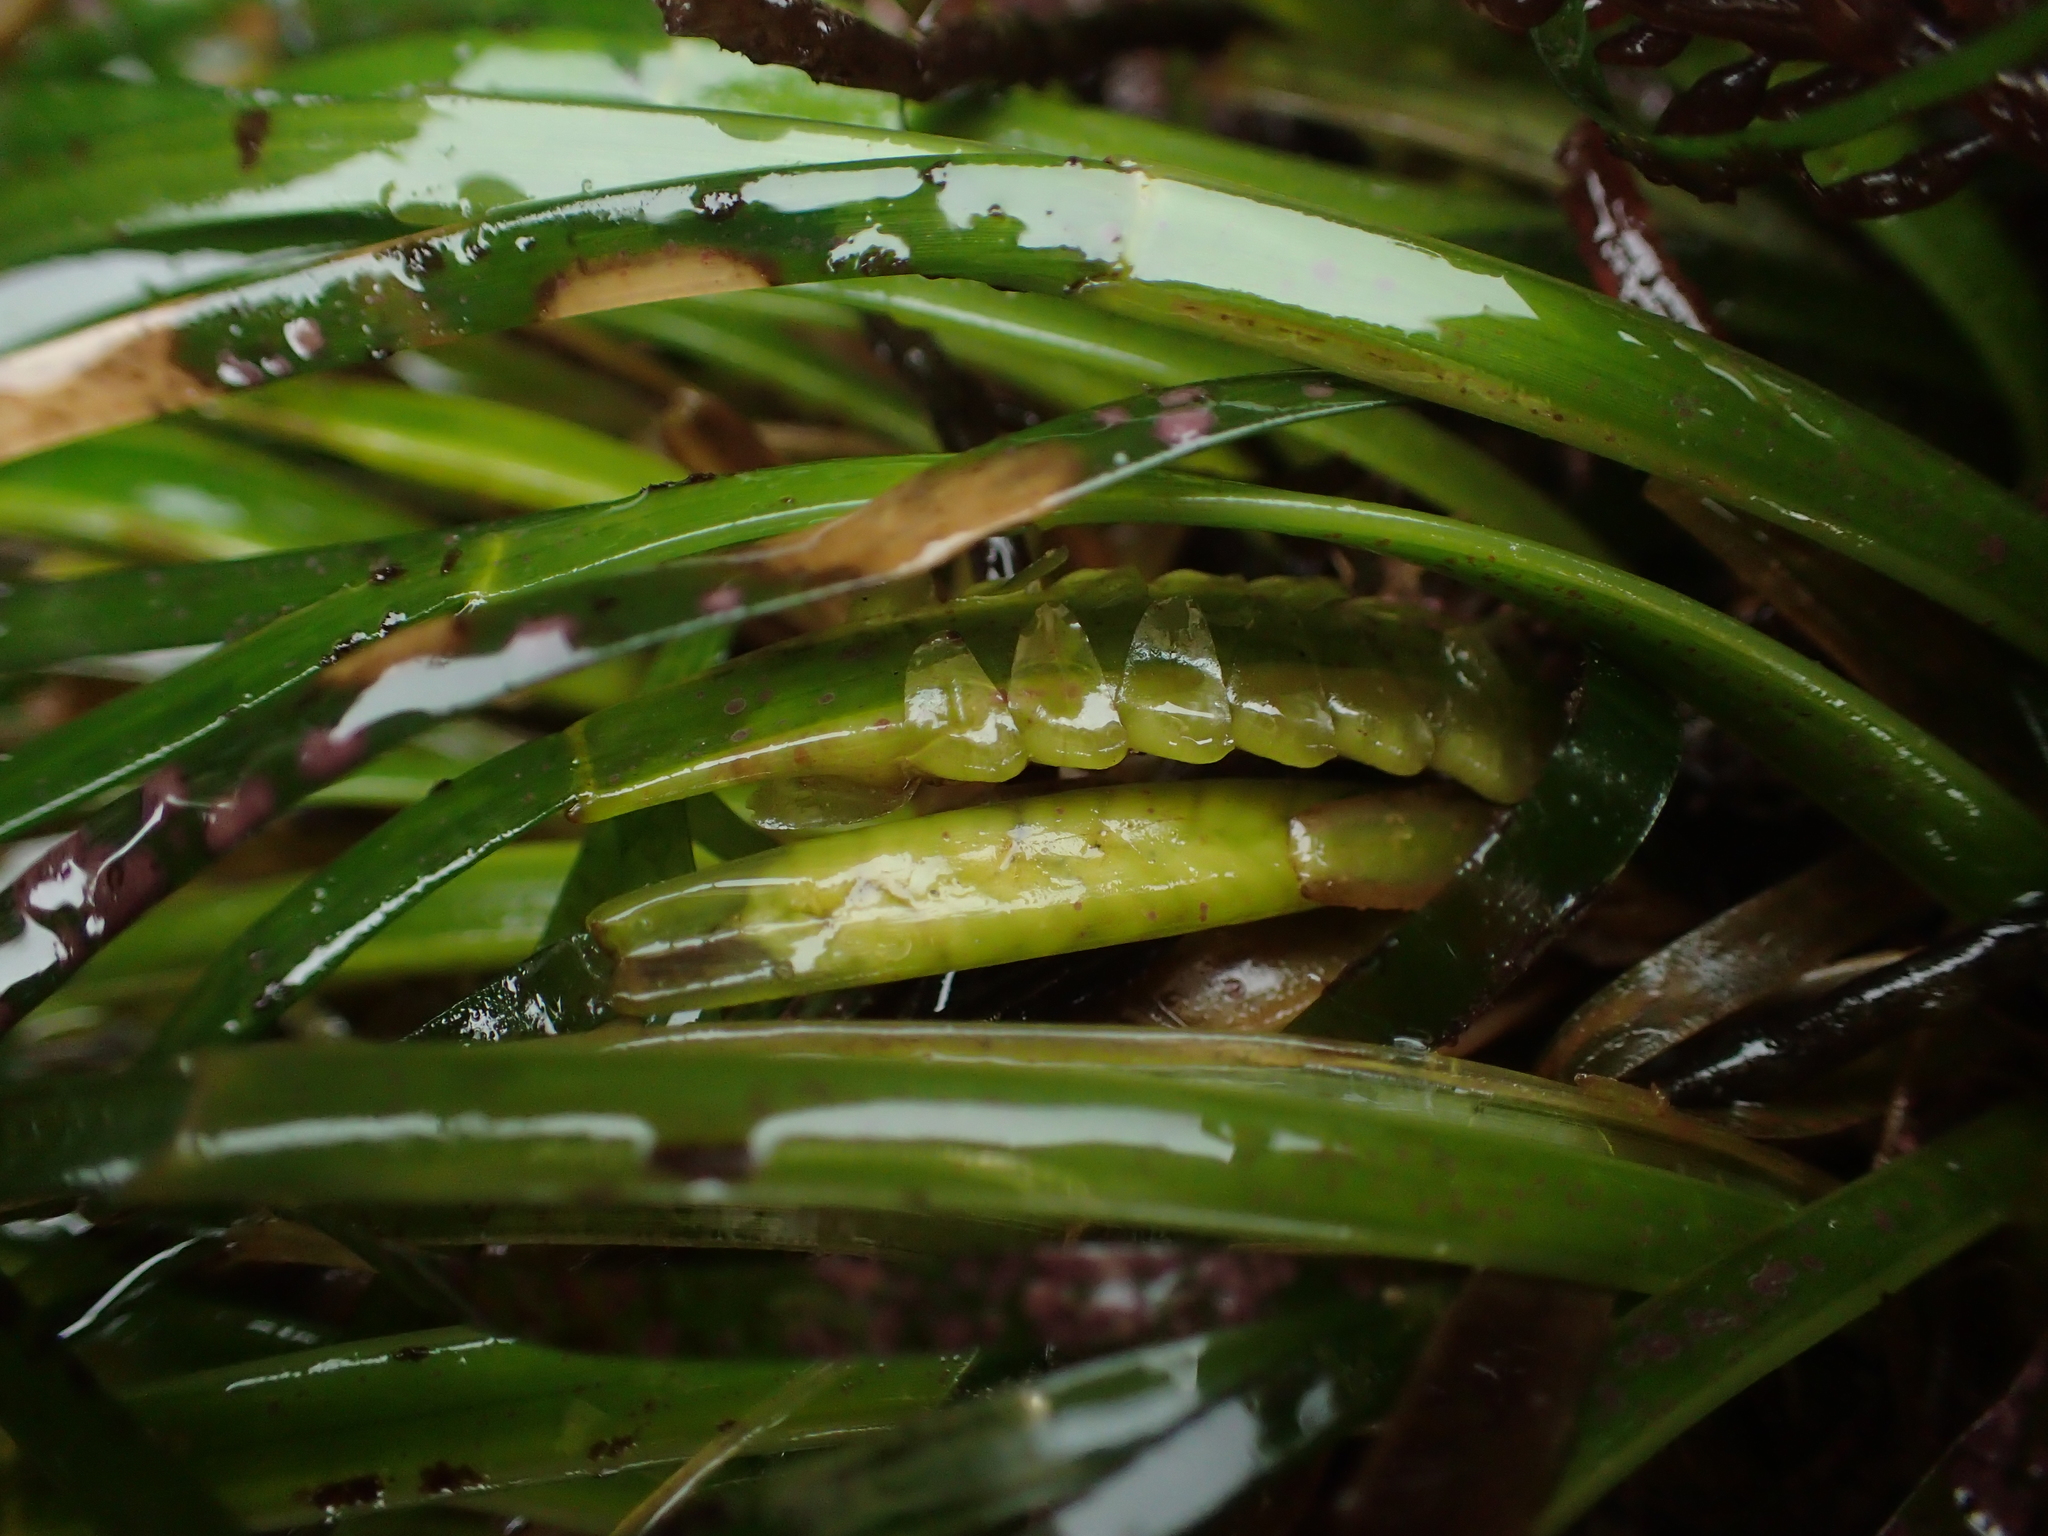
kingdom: Plantae
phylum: Tracheophyta
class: Liliopsida
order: Alismatales
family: Zosteraceae
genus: Phyllospadix
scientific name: Phyllospadix scouleri
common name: Species code: ps
